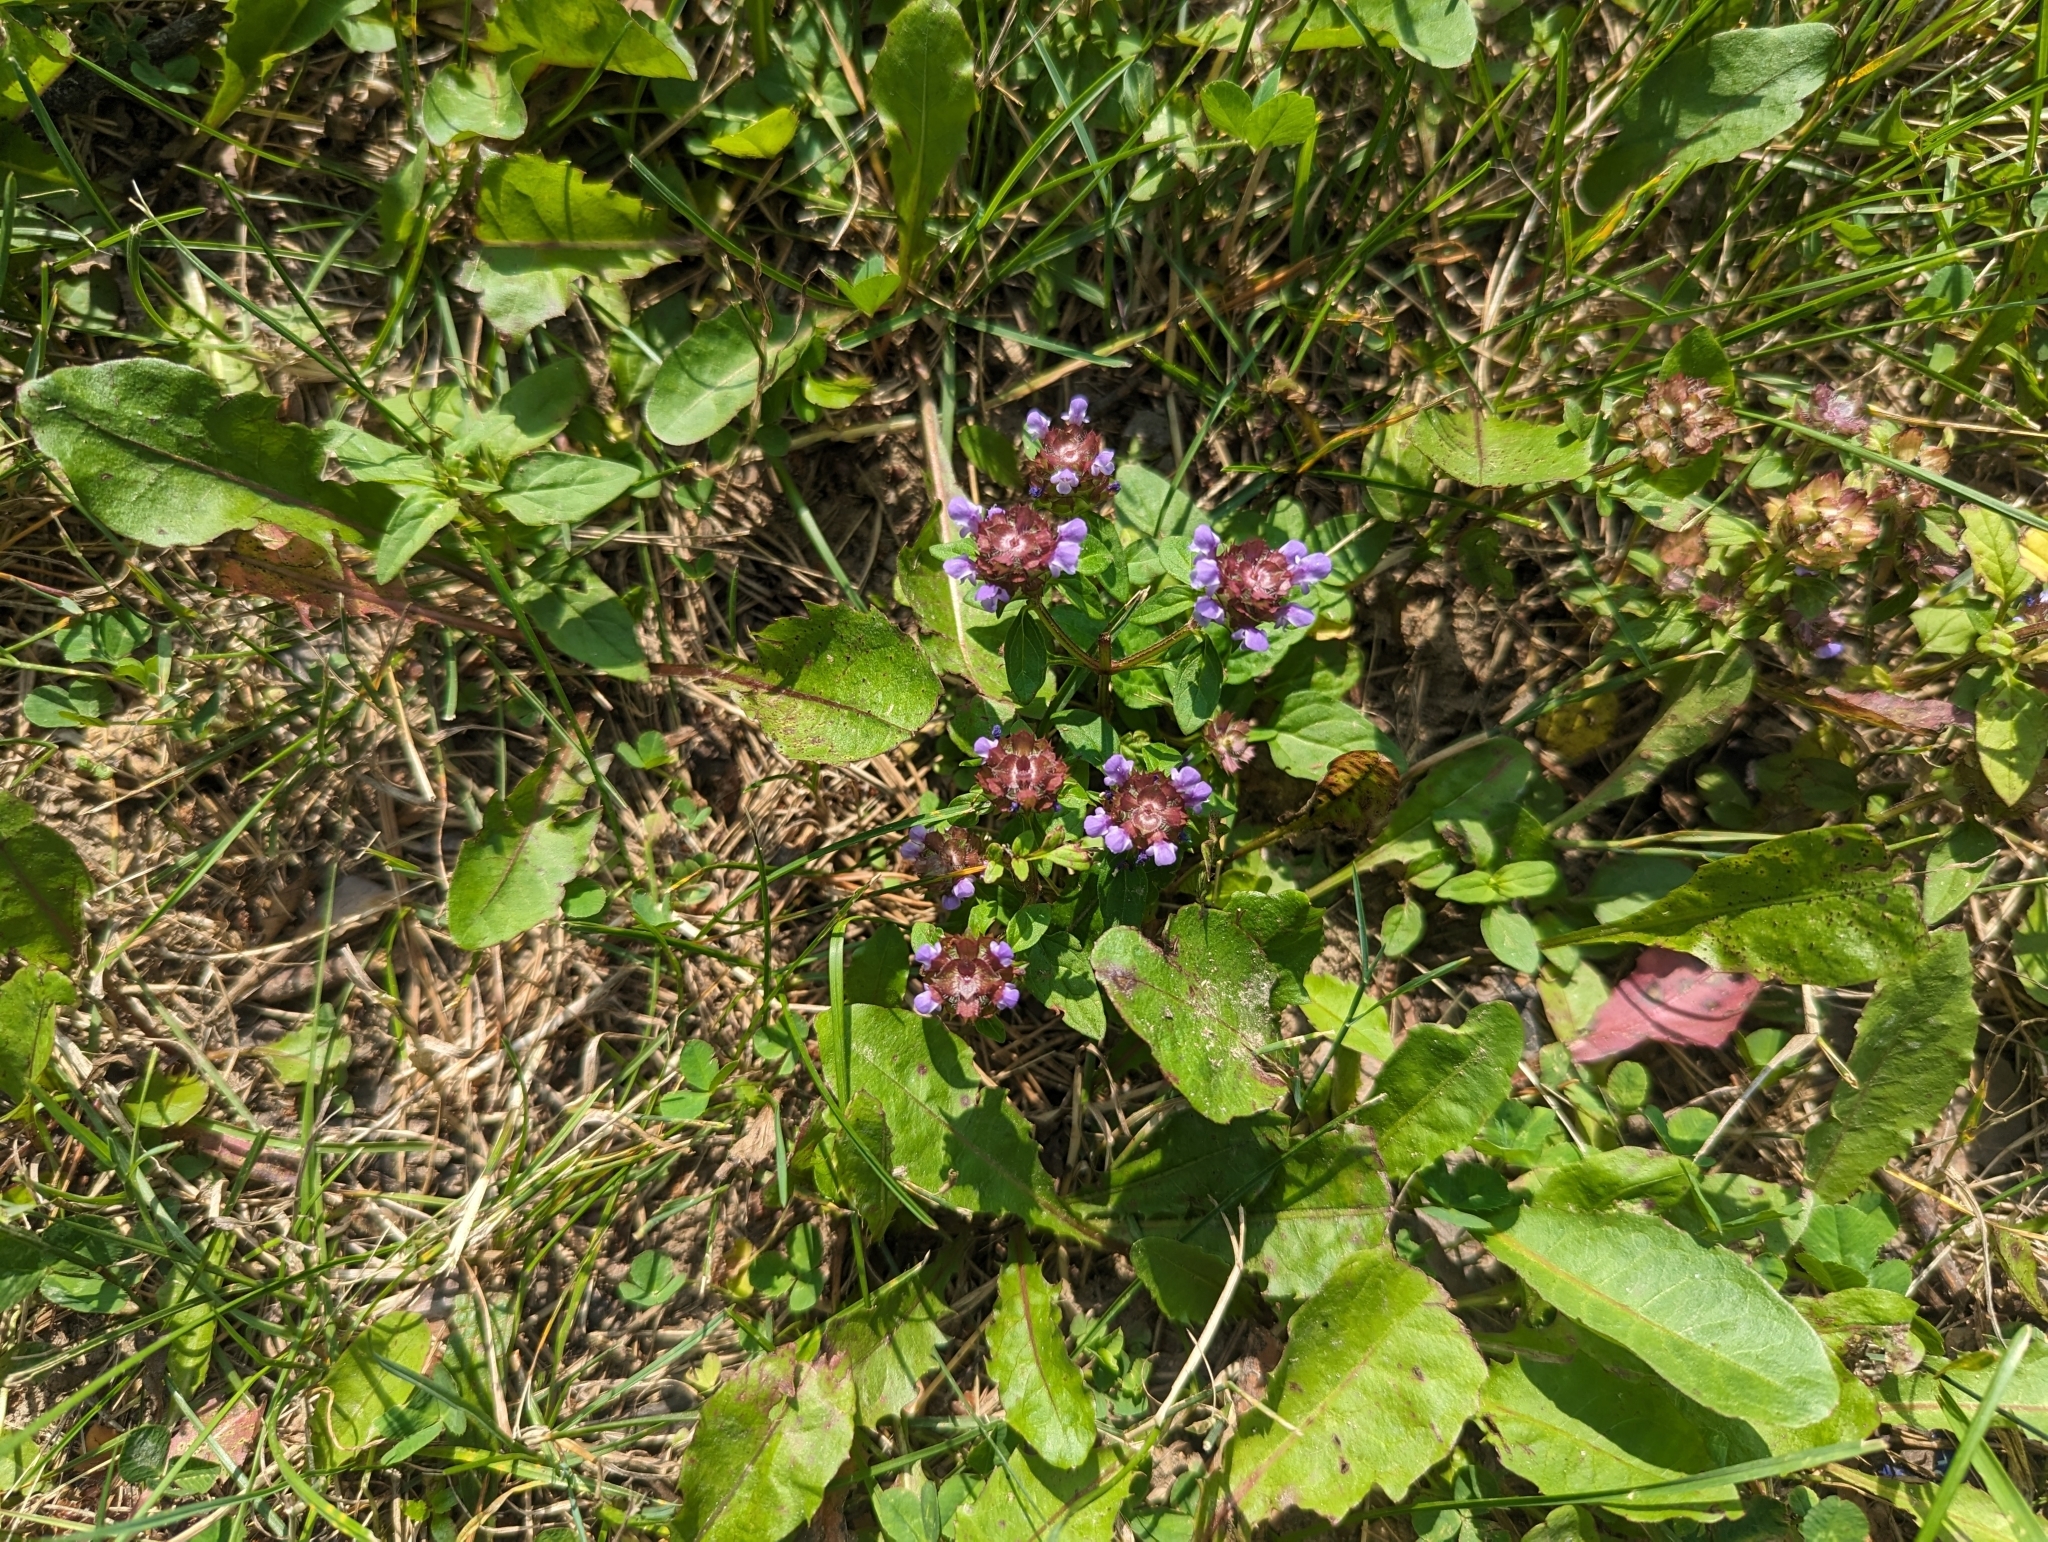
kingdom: Plantae
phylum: Tracheophyta
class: Magnoliopsida
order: Lamiales
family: Lamiaceae
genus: Prunella
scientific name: Prunella vulgaris
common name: Heal-all
